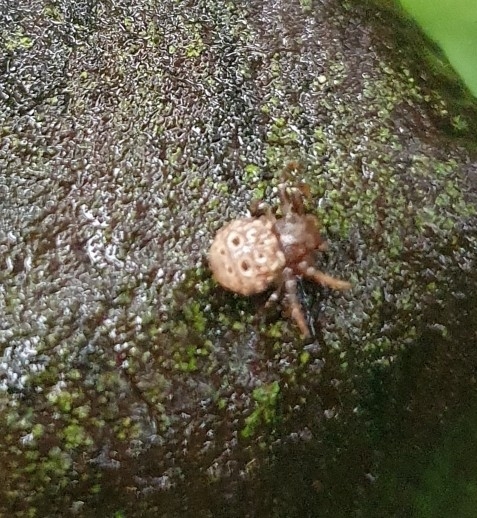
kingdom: Animalia
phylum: Arthropoda
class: Arachnida
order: Araneae
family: Thomisidae
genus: Cymbacha
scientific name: Cymbacha ocellata
